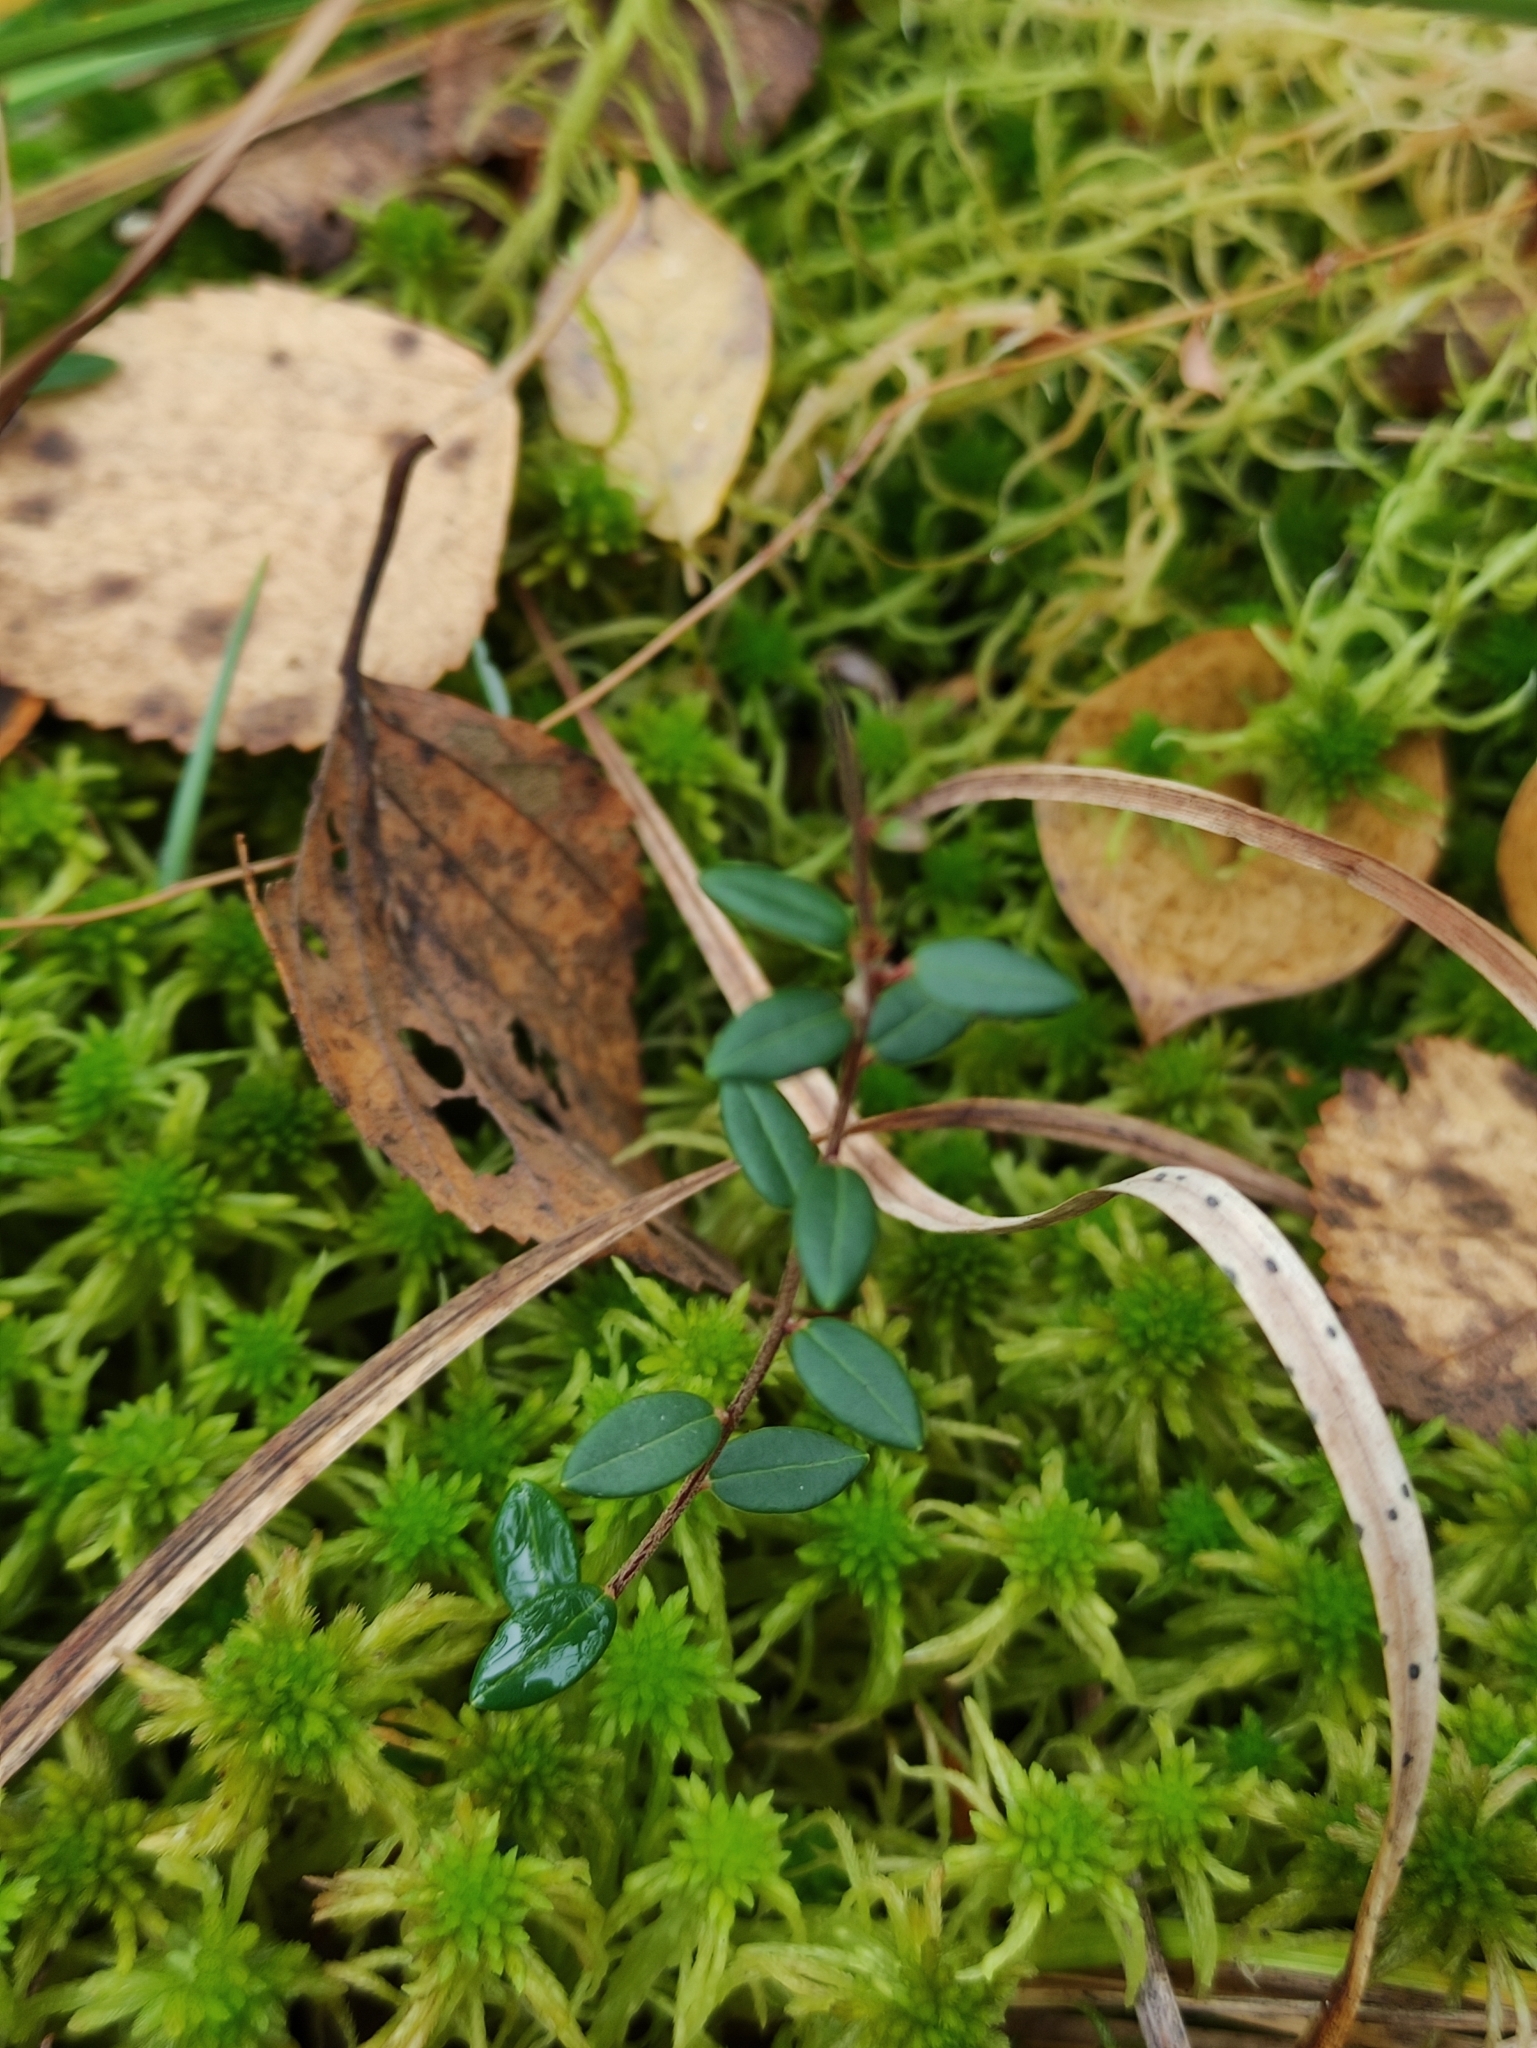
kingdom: Plantae
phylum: Tracheophyta
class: Magnoliopsida
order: Ericales
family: Ericaceae
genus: Vaccinium
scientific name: Vaccinium oxycoccos
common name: Cranberry
